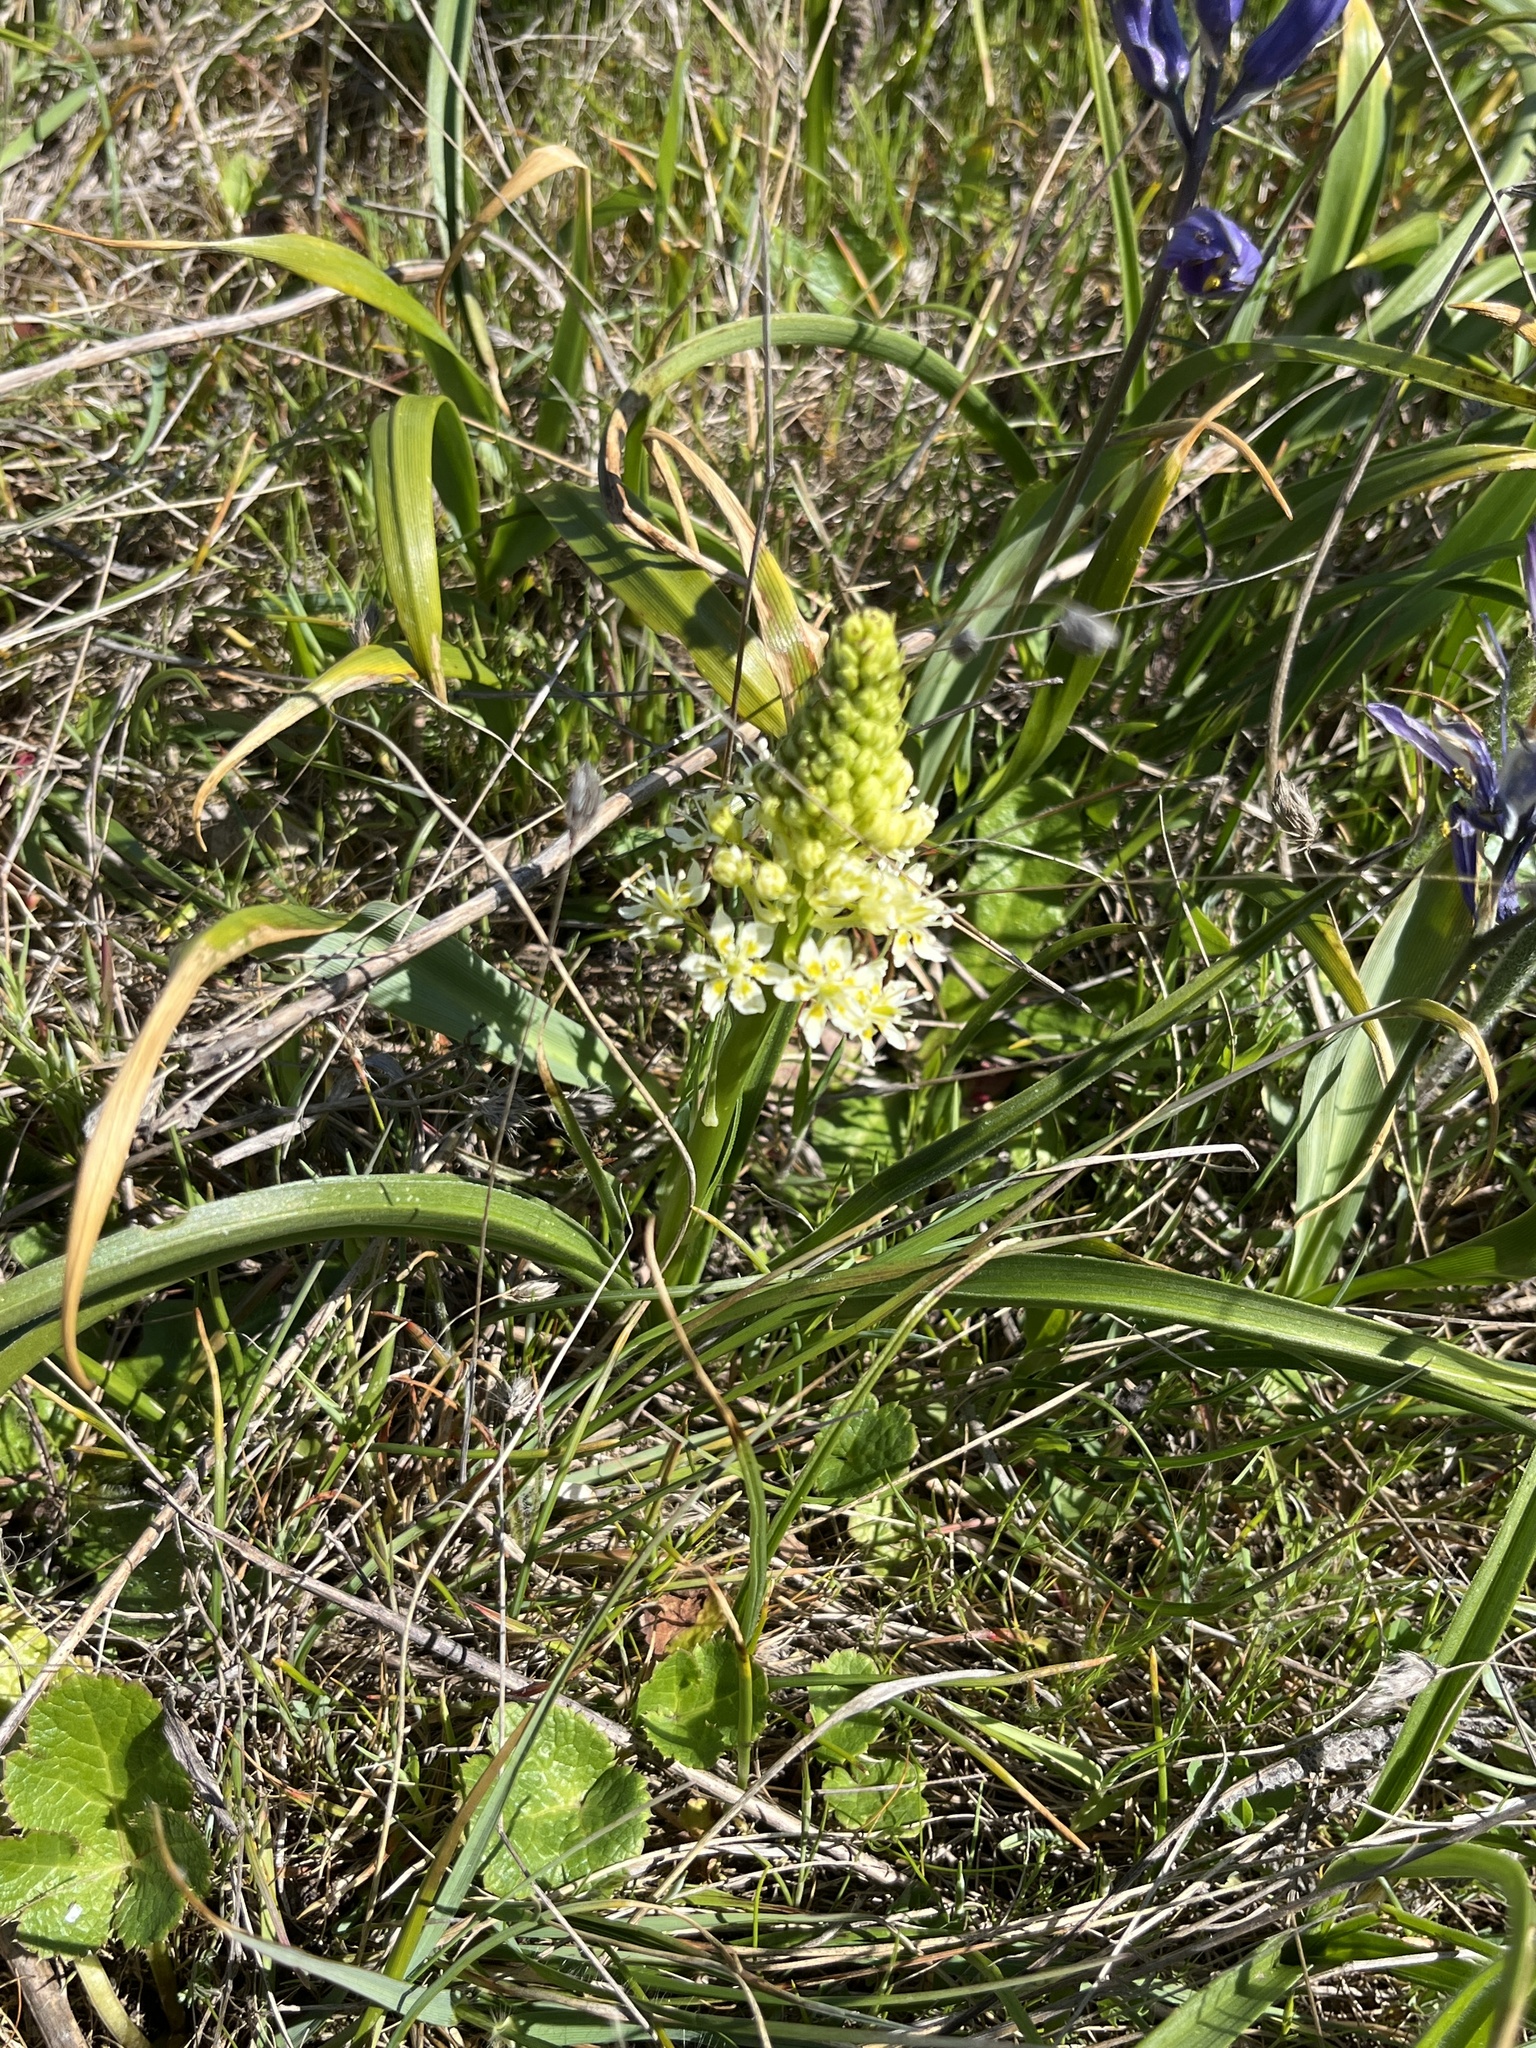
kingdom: Plantae
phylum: Tracheophyta
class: Liliopsida
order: Liliales
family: Melanthiaceae
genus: Toxicoscordion
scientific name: Toxicoscordion venenosum
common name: Meadow death camas
